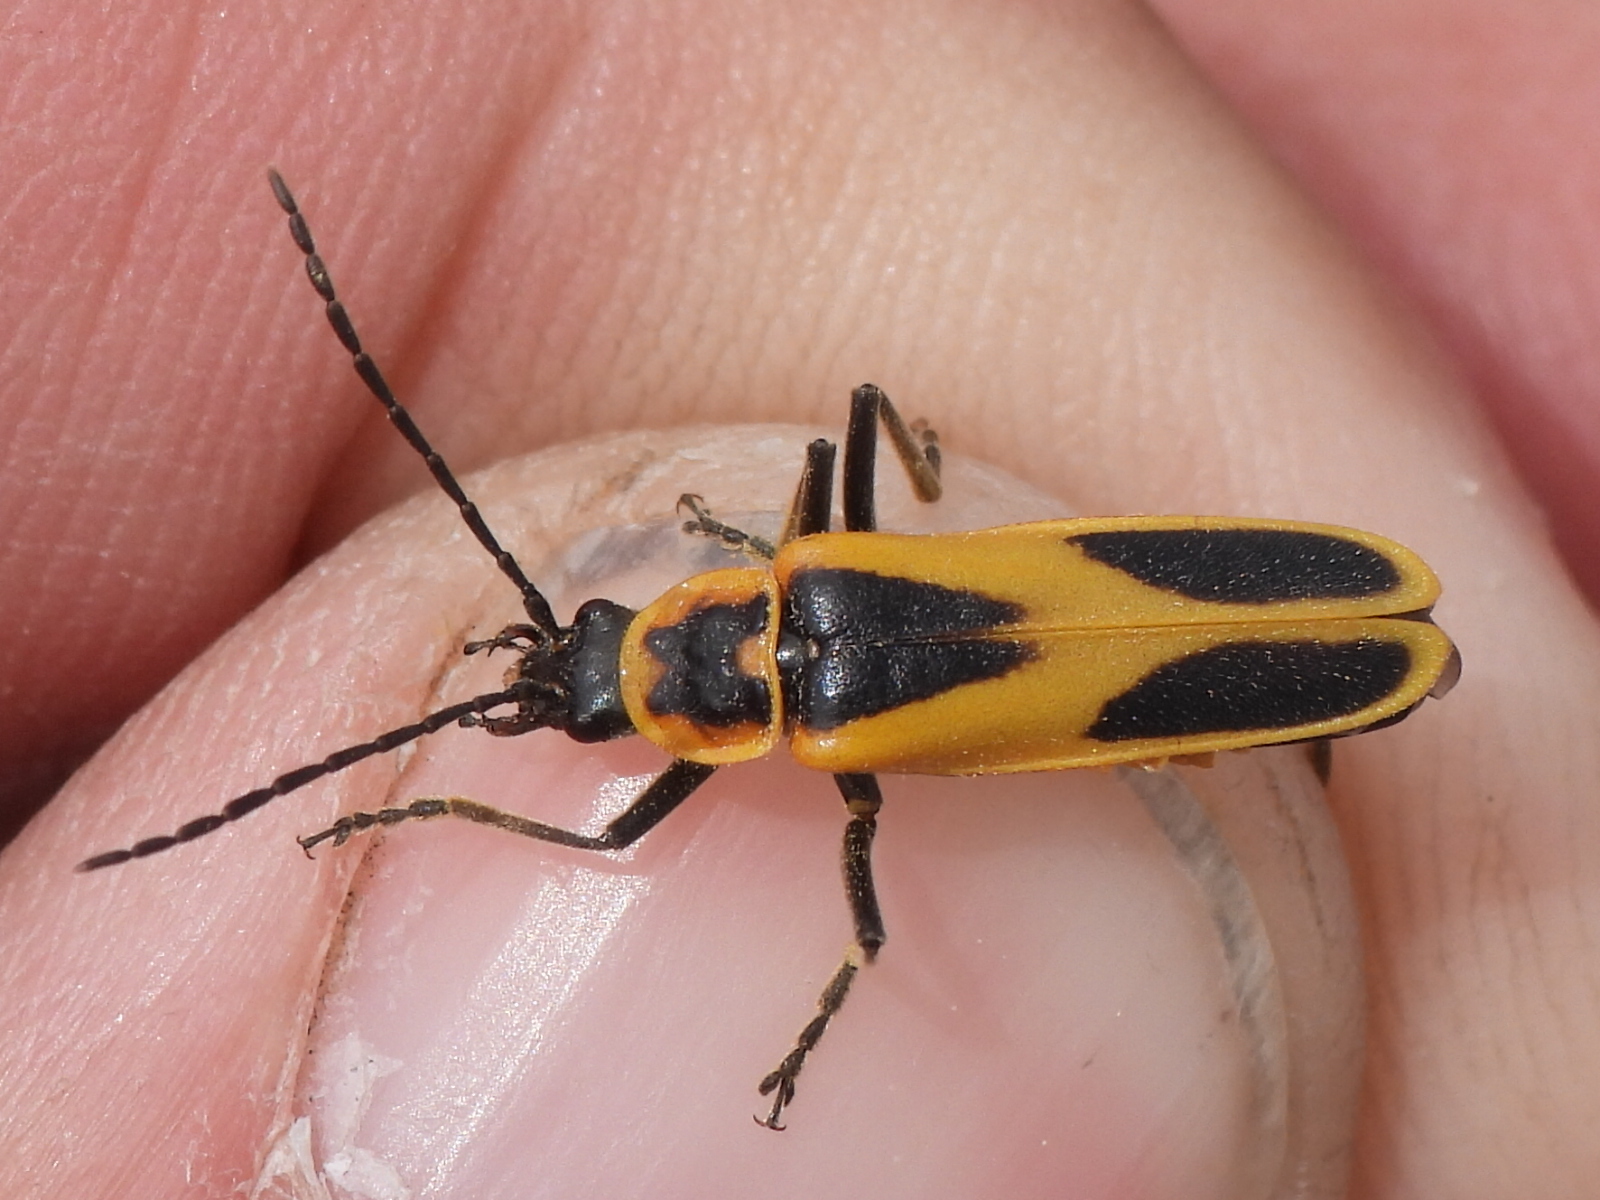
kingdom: Animalia
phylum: Arthropoda
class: Insecta
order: Coleoptera
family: Cantharidae
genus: Chauliognathus
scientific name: Chauliognathus scutellaris
